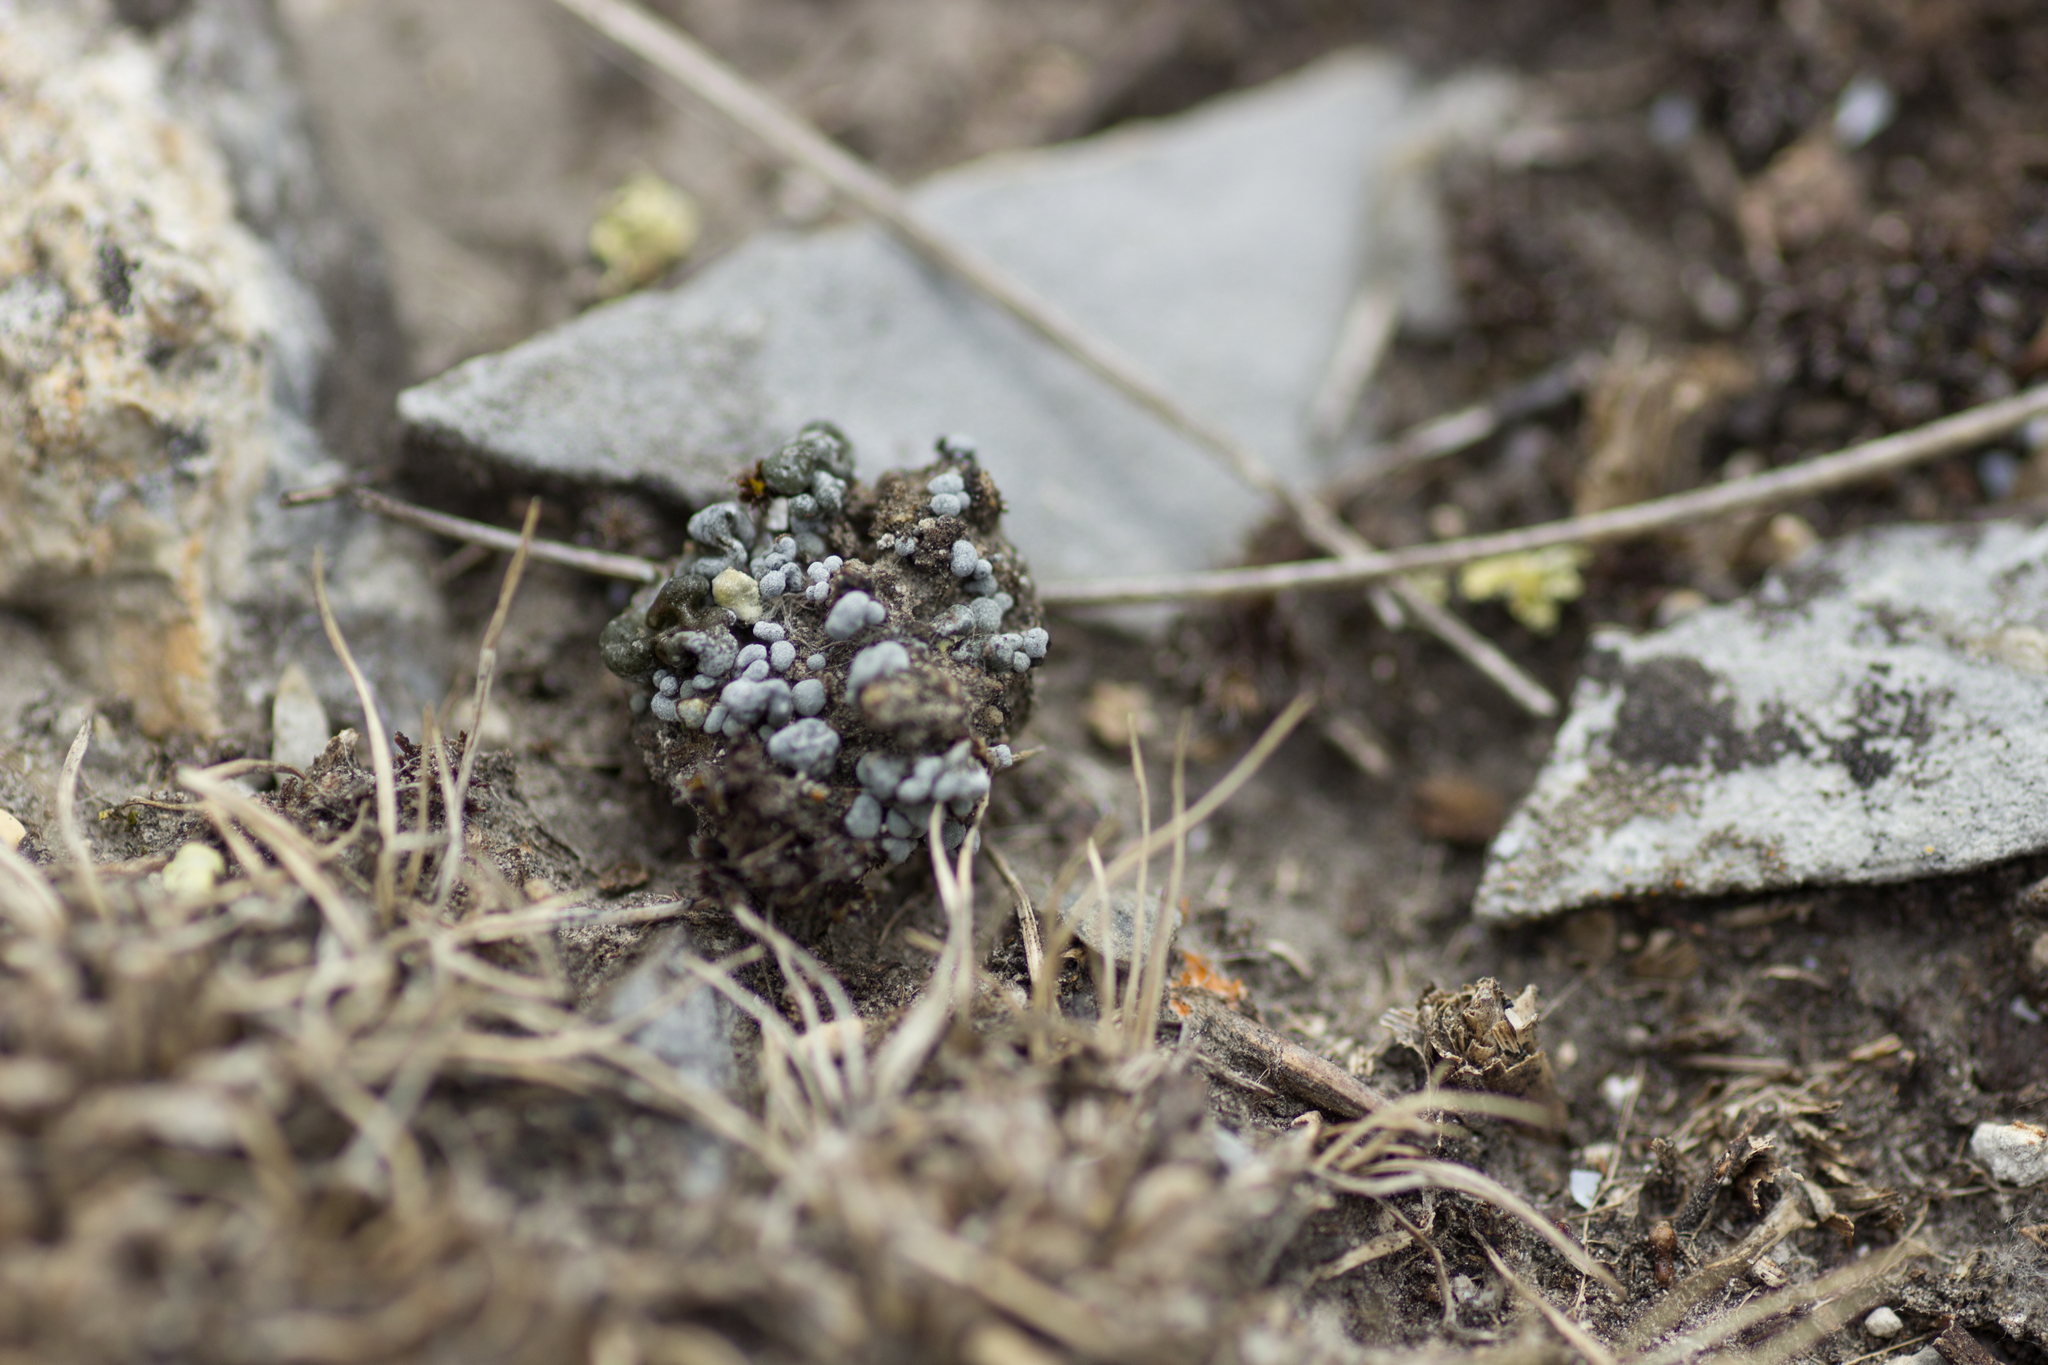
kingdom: Fungi
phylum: Ascomycota
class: Lecanoromycetes
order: Lecanorales
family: Ramalinaceae
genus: Thalloidima
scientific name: Thalloidima sedifolium
